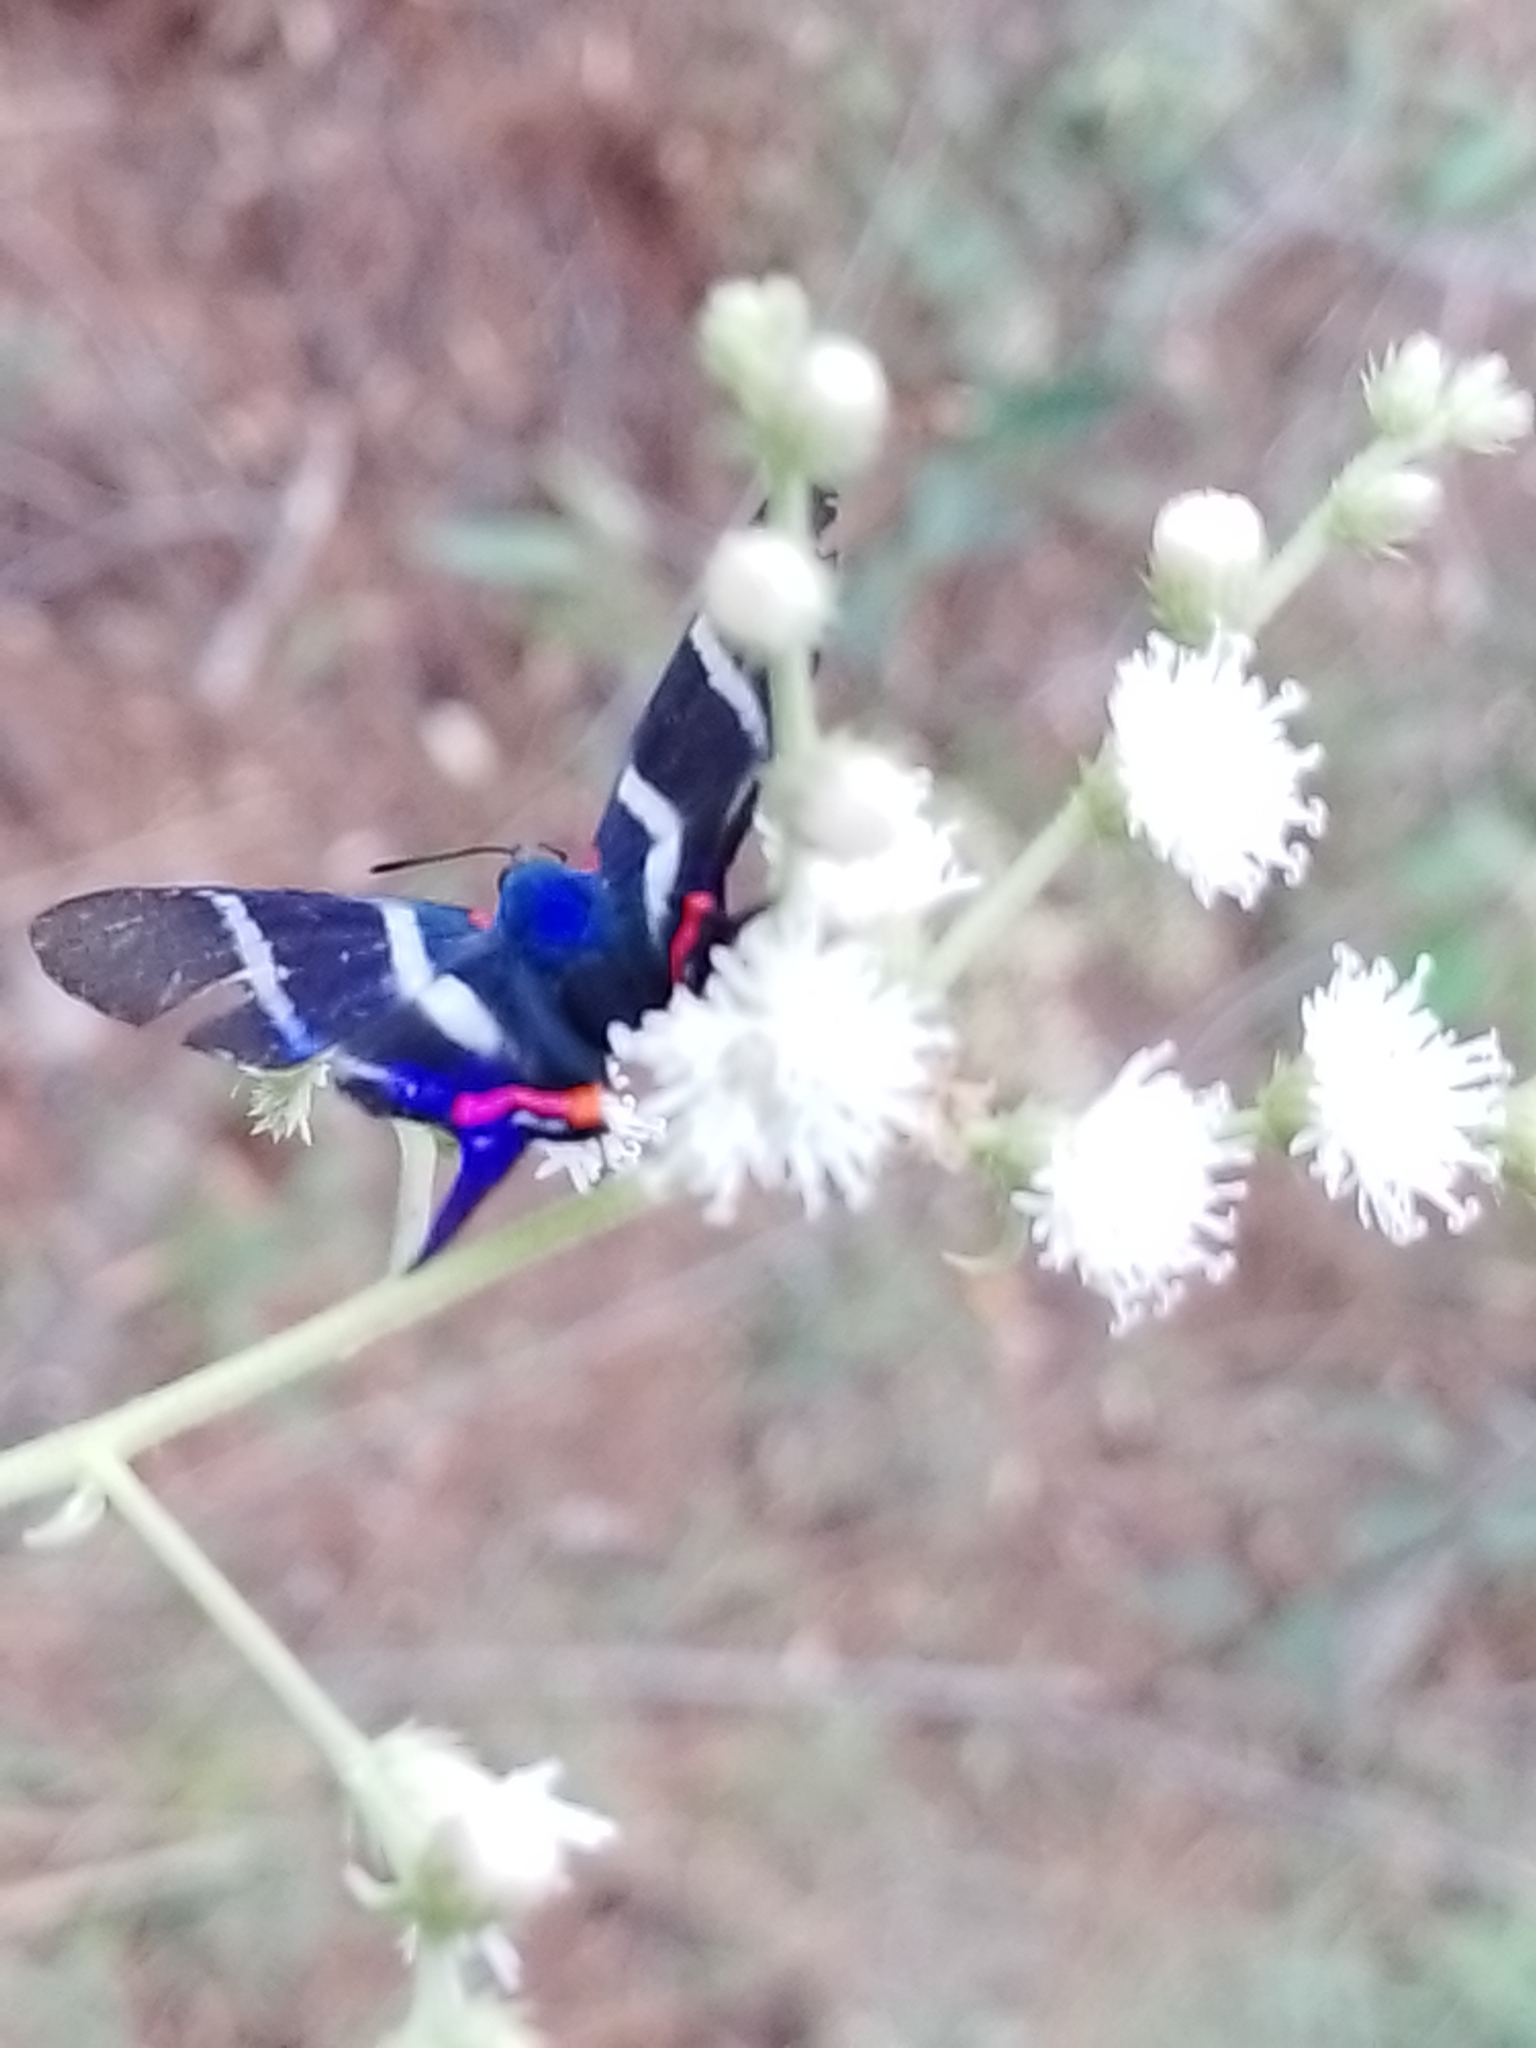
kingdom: Animalia
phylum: Arthropoda
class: Insecta
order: Lepidoptera
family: Riodinidae
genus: Rhetus
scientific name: Rhetus arcius
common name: Long-tailed metalmark
